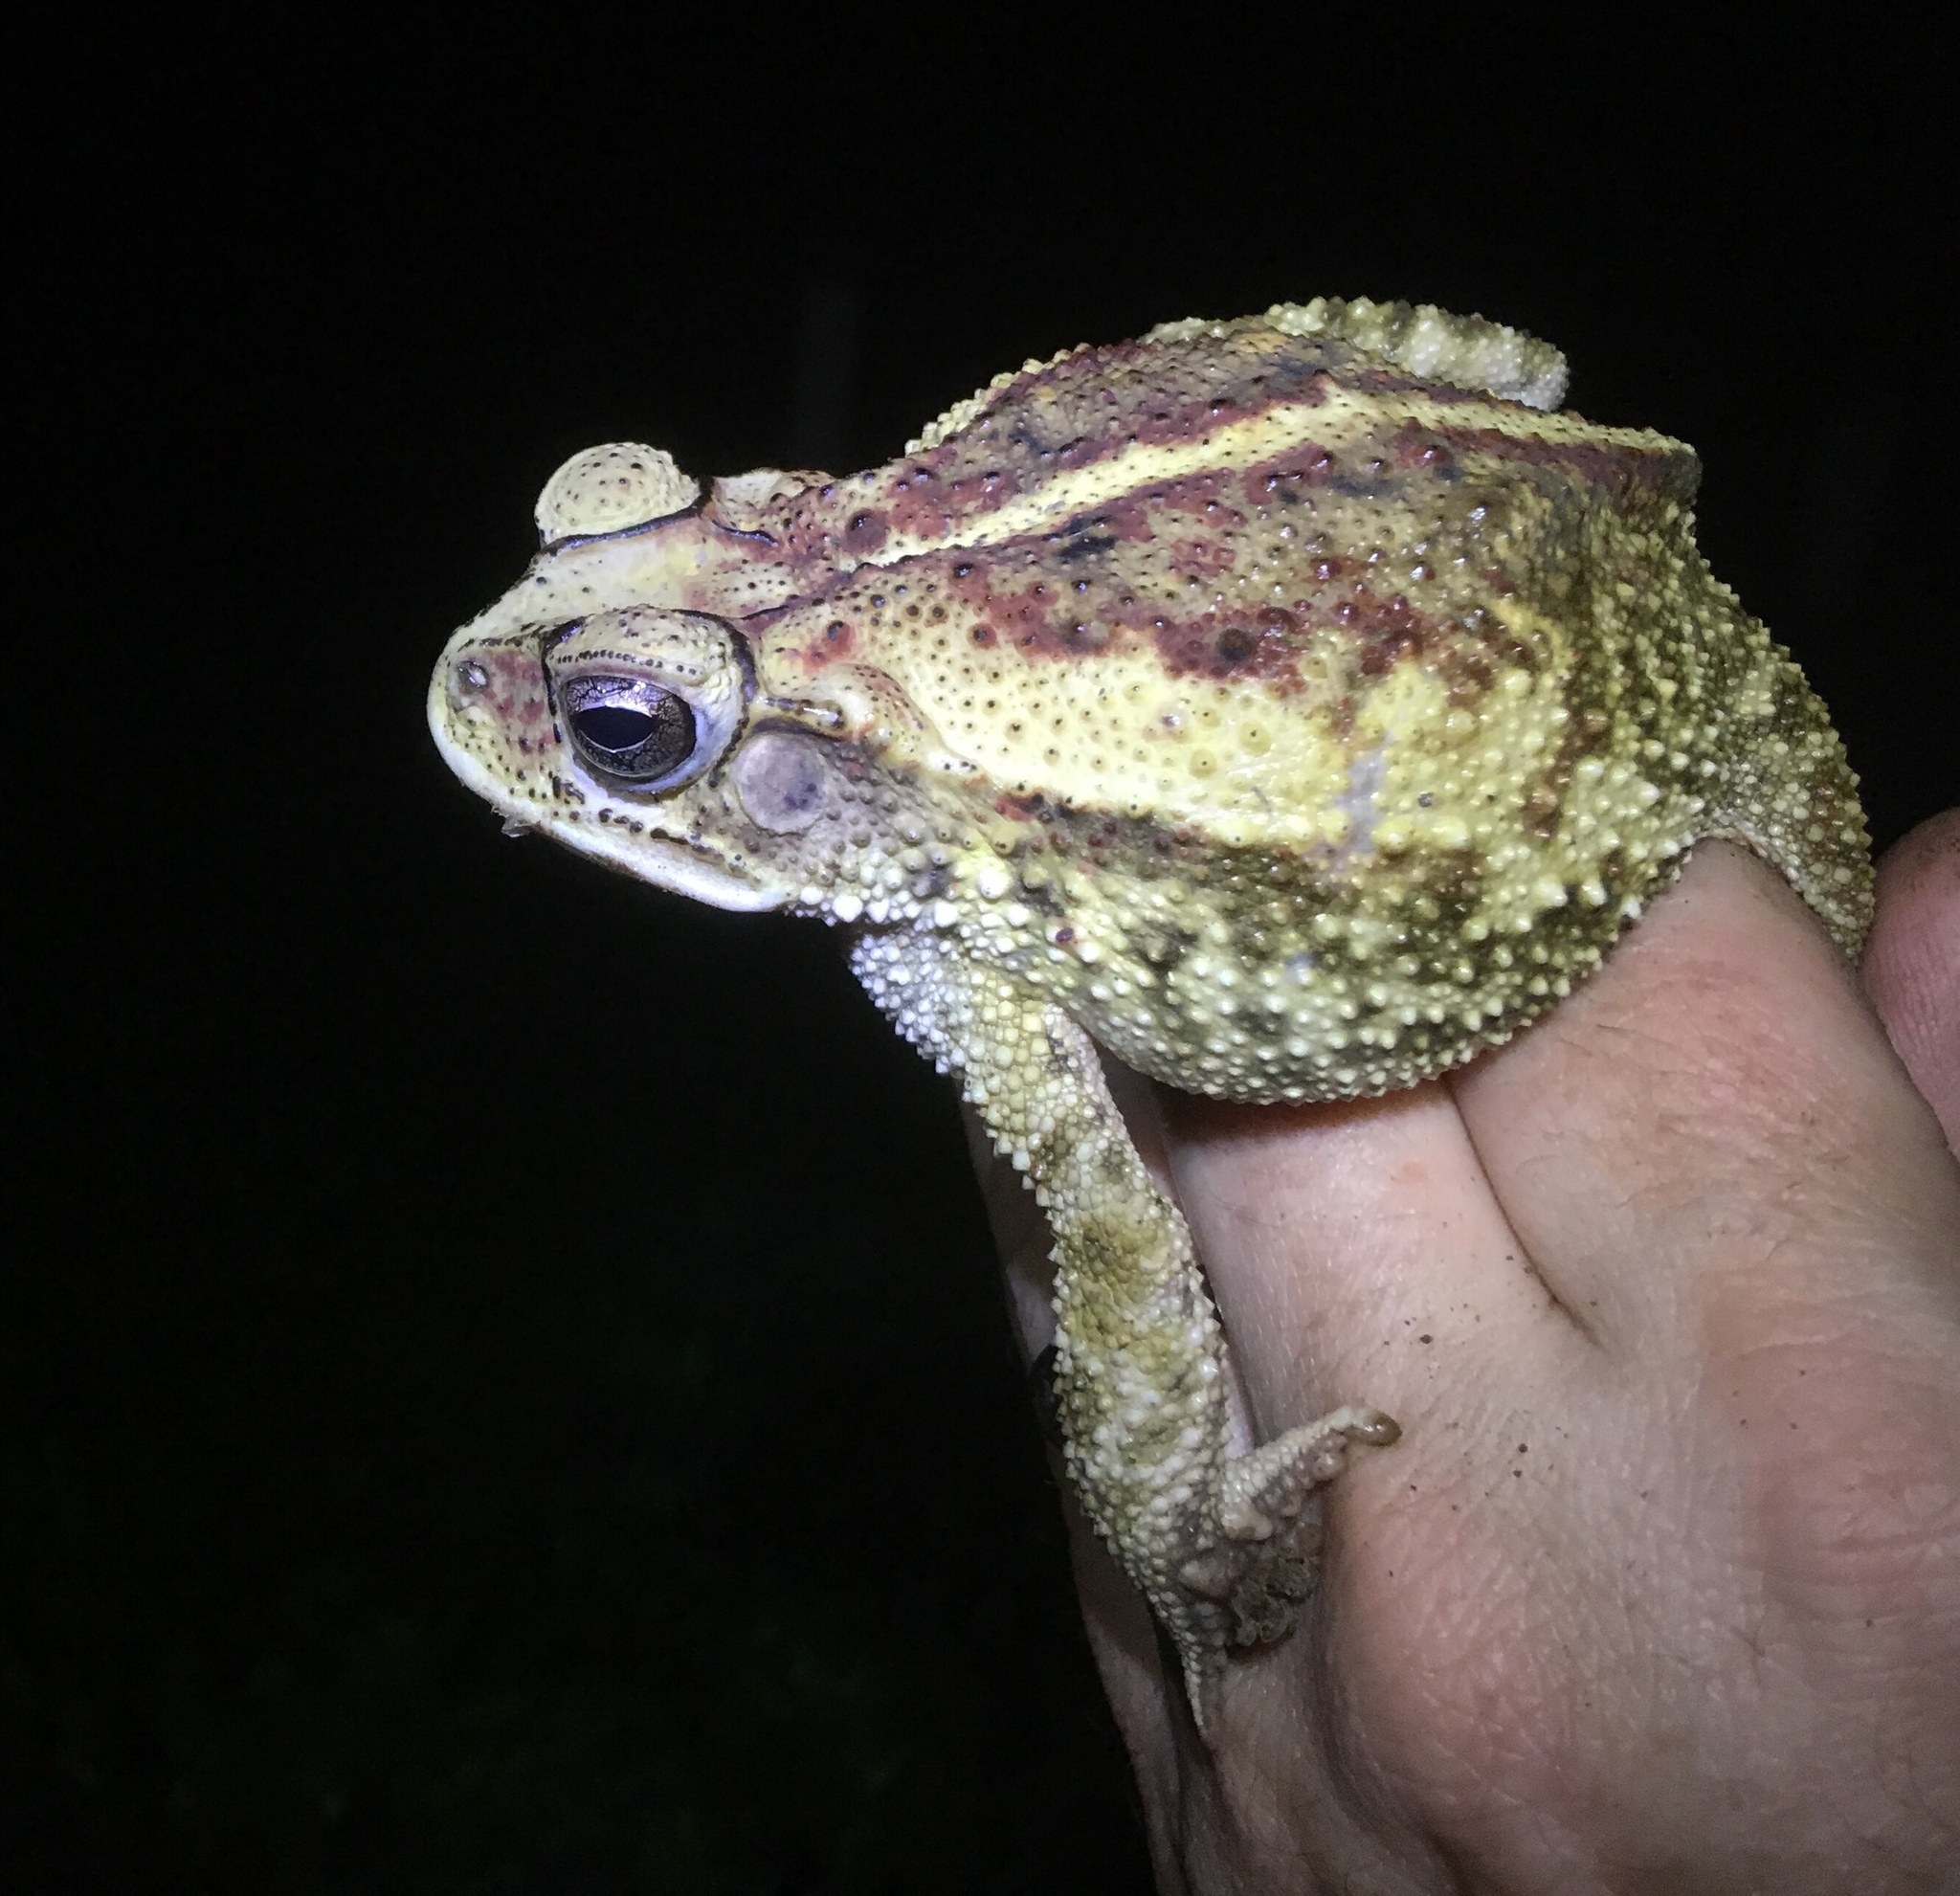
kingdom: Animalia
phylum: Chordata
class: Amphibia
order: Anura
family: Bufonidae
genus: Incilius
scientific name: Incilius luetkenii
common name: Yellow toad
